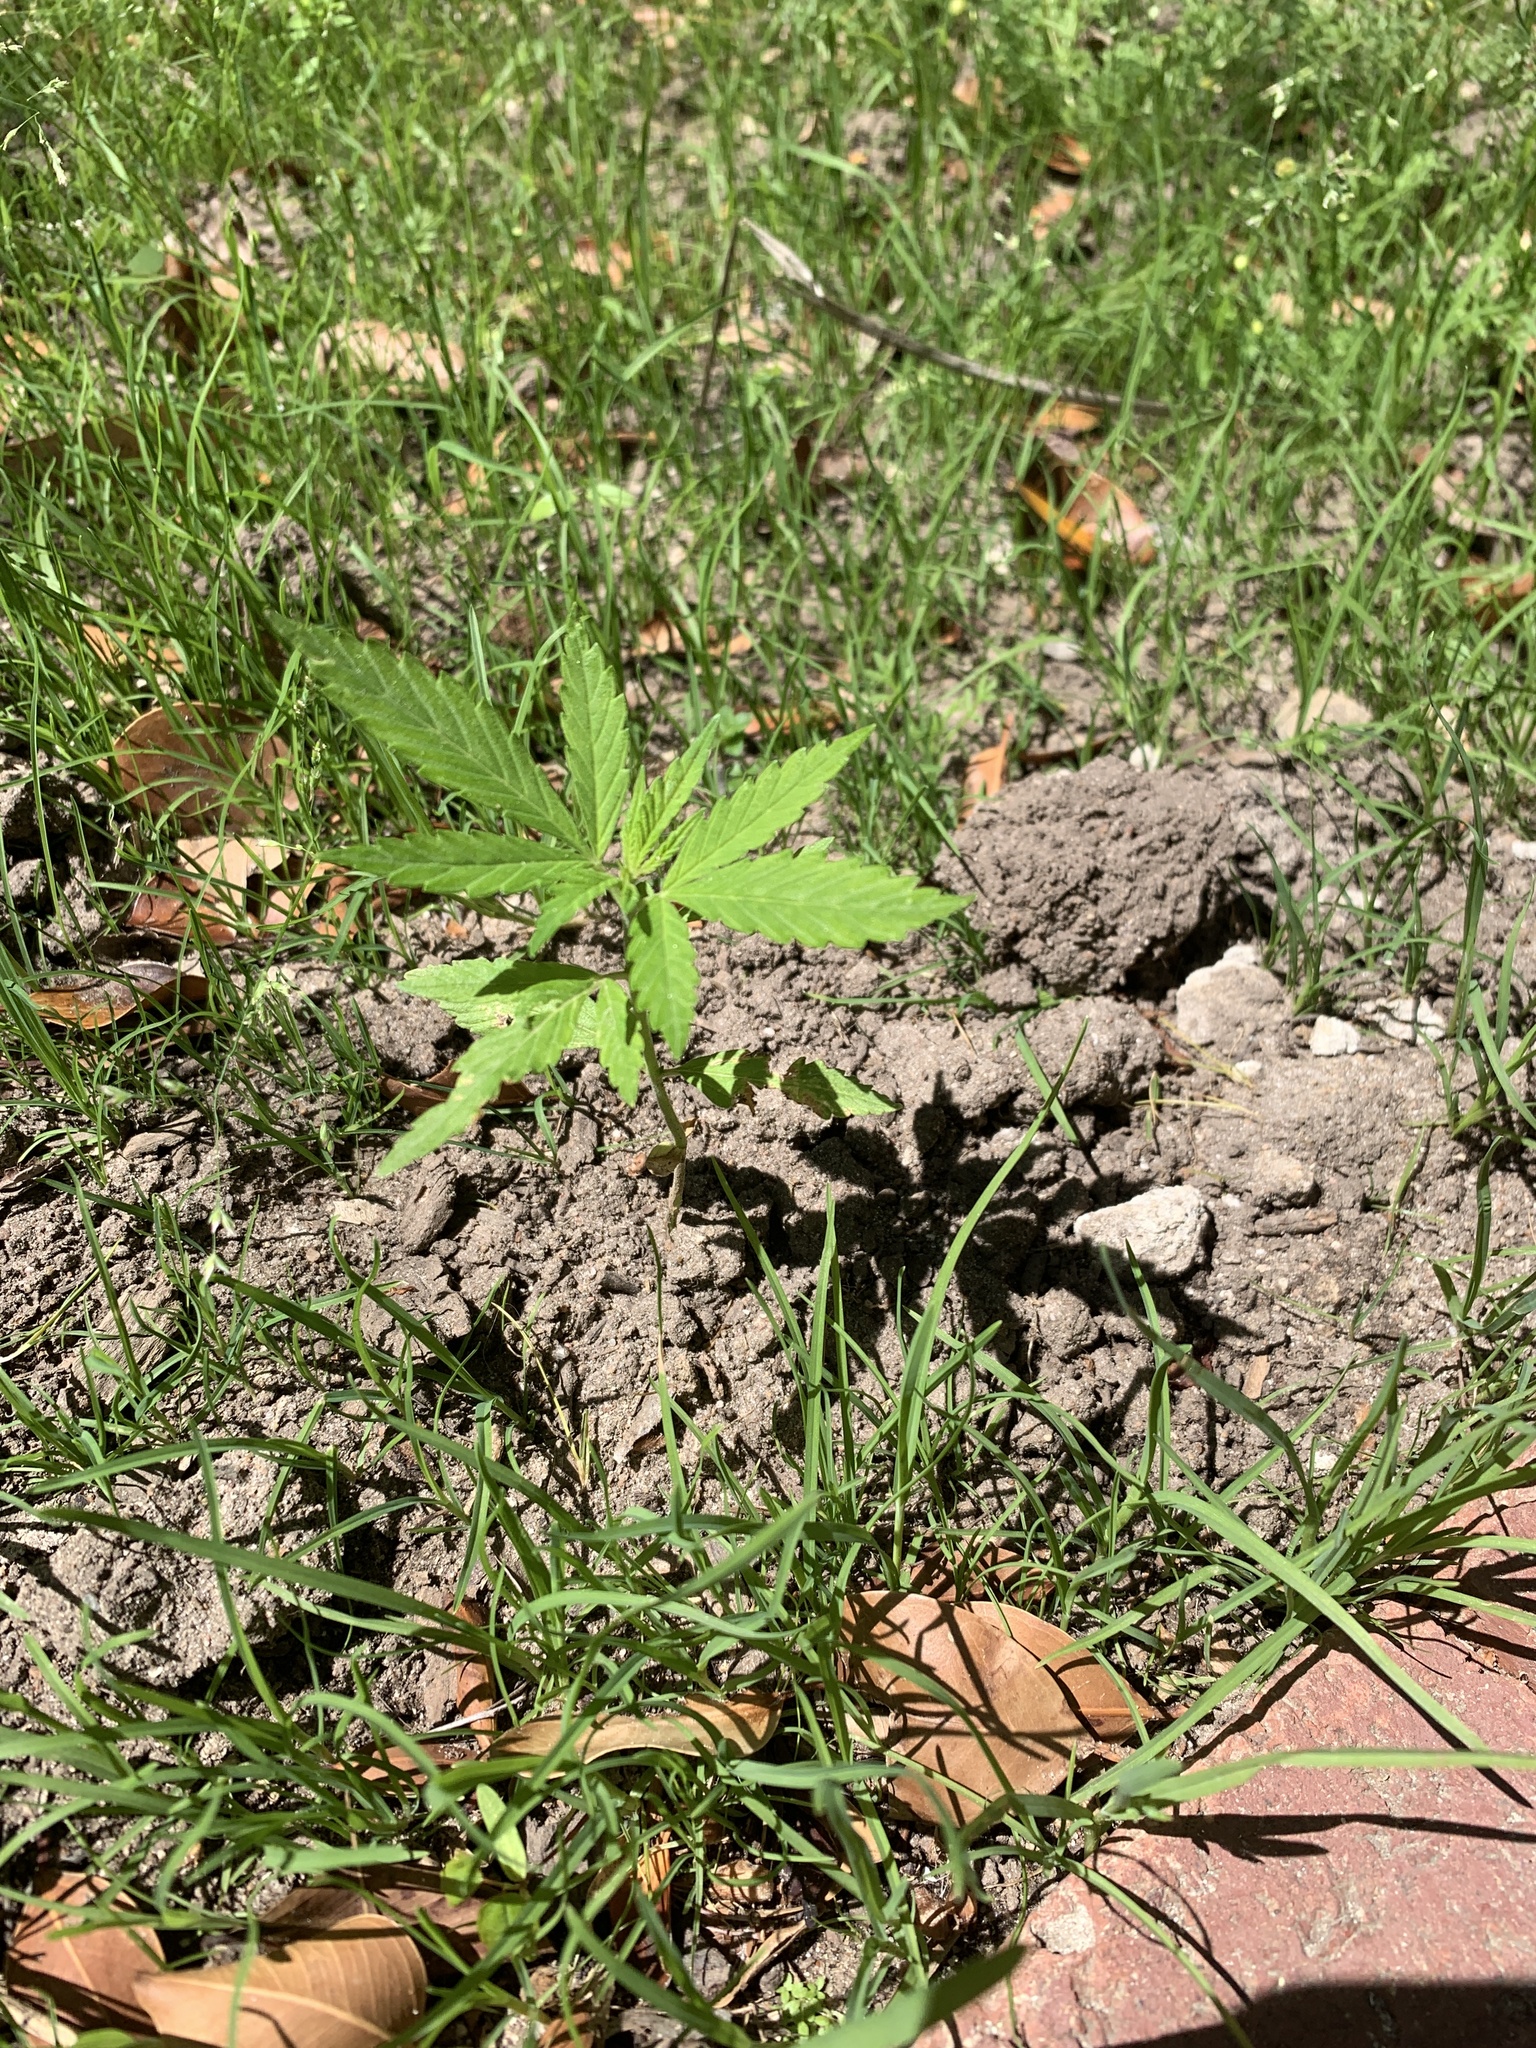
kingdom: Plantae
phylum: Tracheophyta
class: Magnoliopsida
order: Rosales
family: Cannabaceae
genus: Cannabis
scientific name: Cannabis sativa
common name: Hemp
